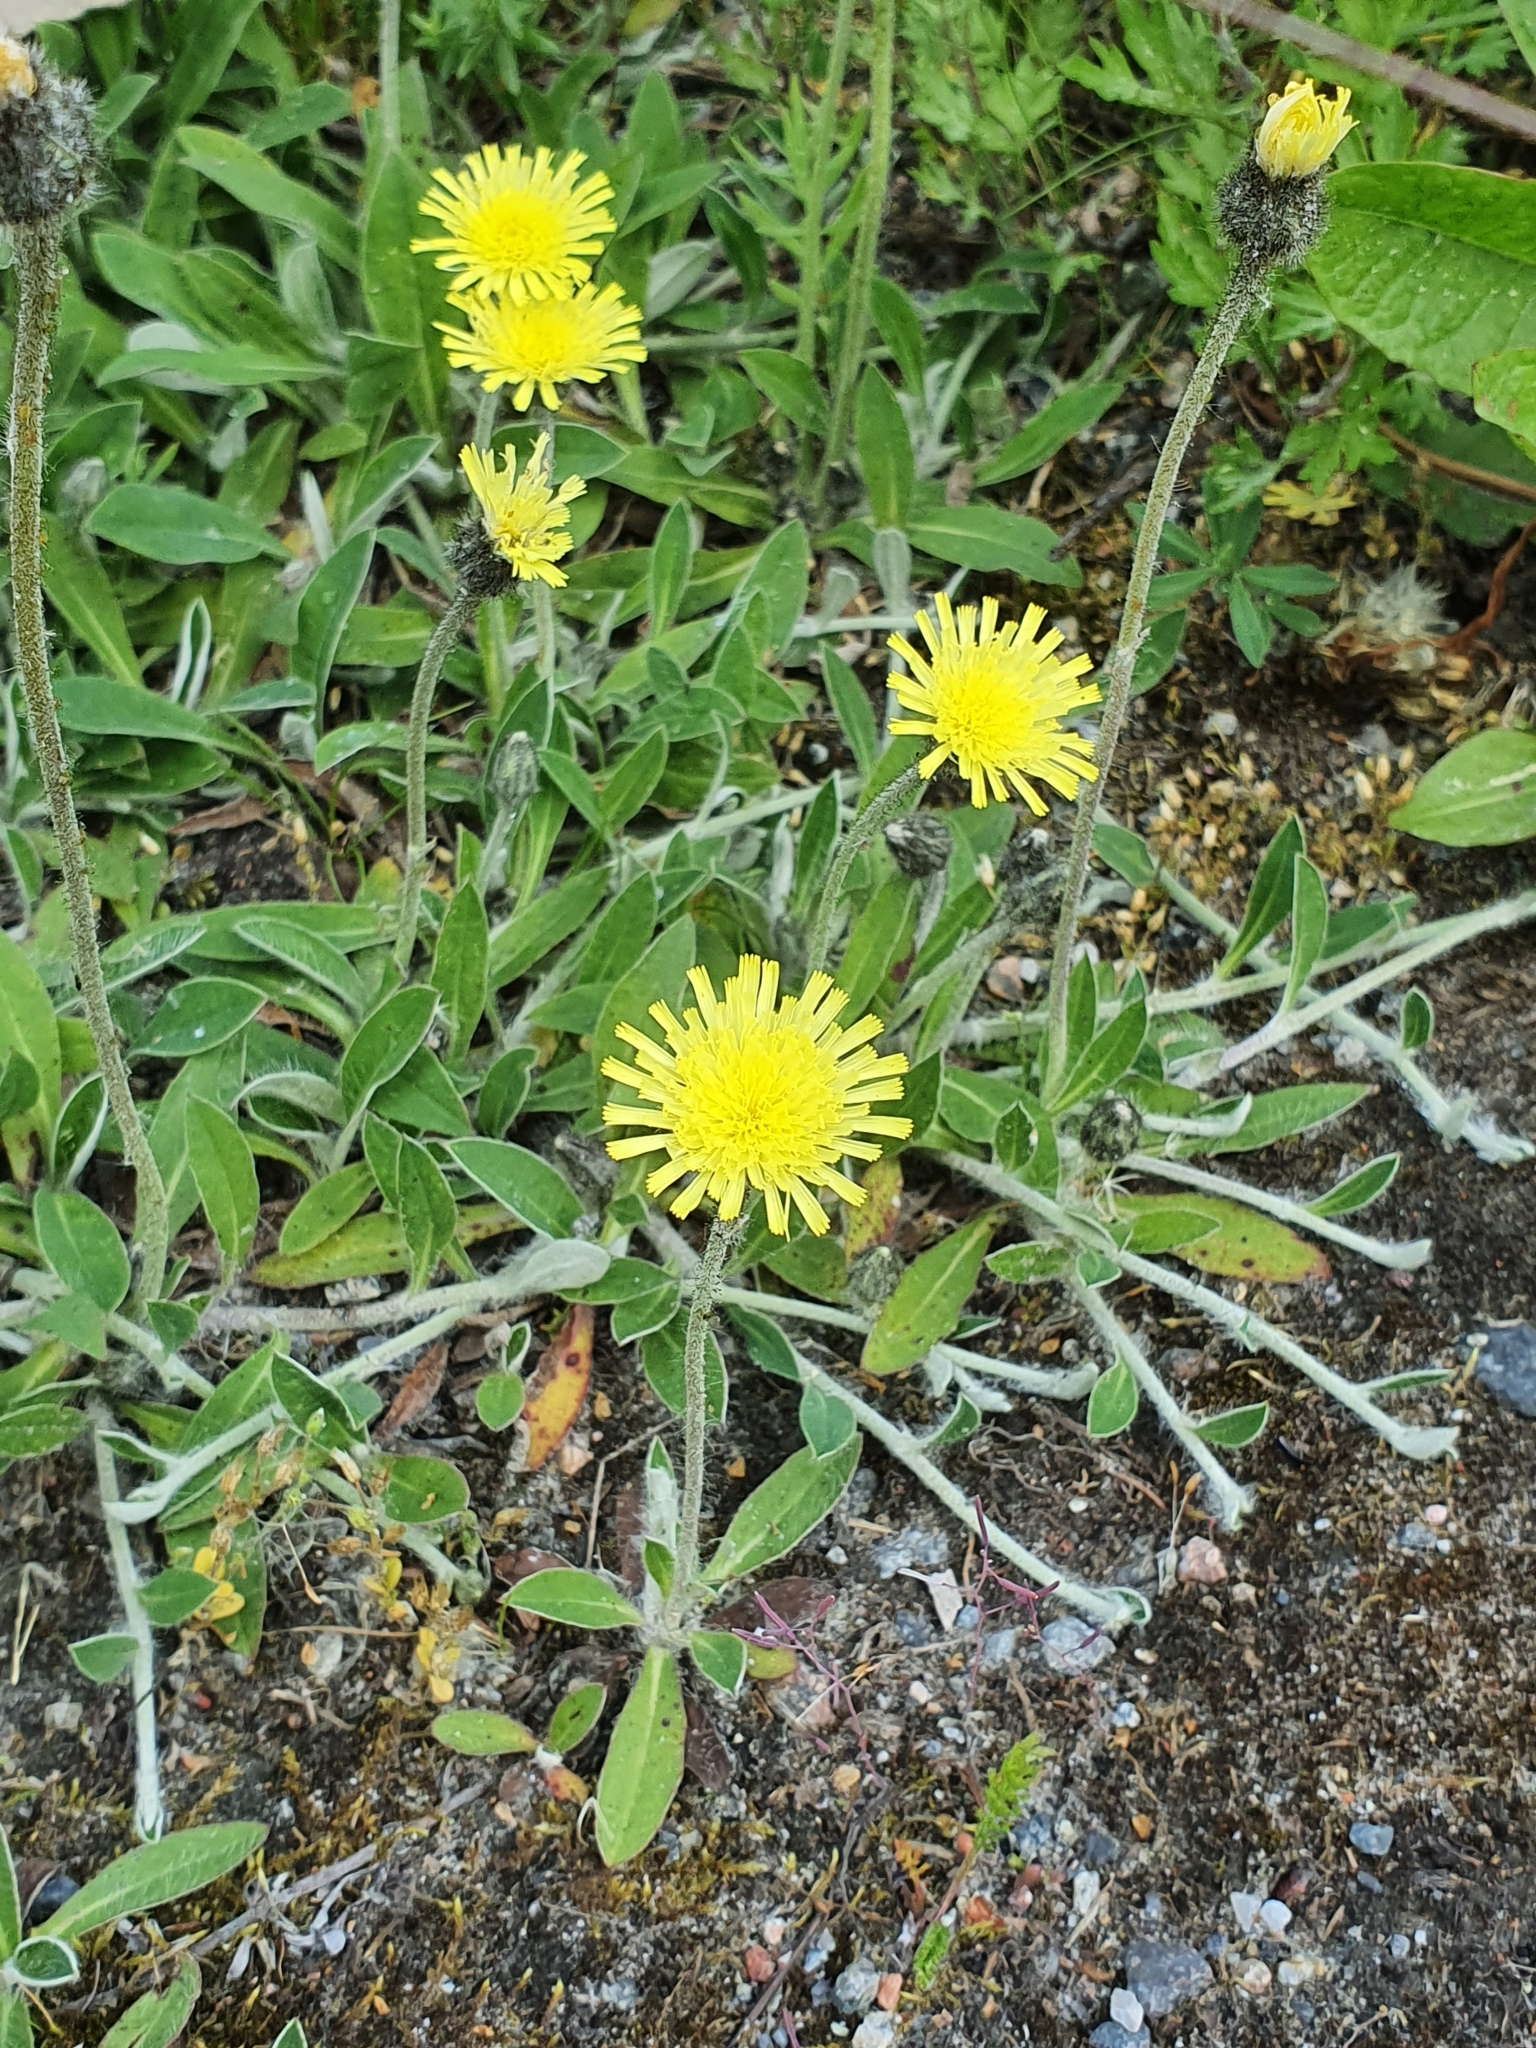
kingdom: Plantae
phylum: Tracheophyta
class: Magnoliopsida
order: Asterales
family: Asteraceae
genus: Pilosella
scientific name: Pilosella officinarum
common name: Mouse-ear hawkweed
